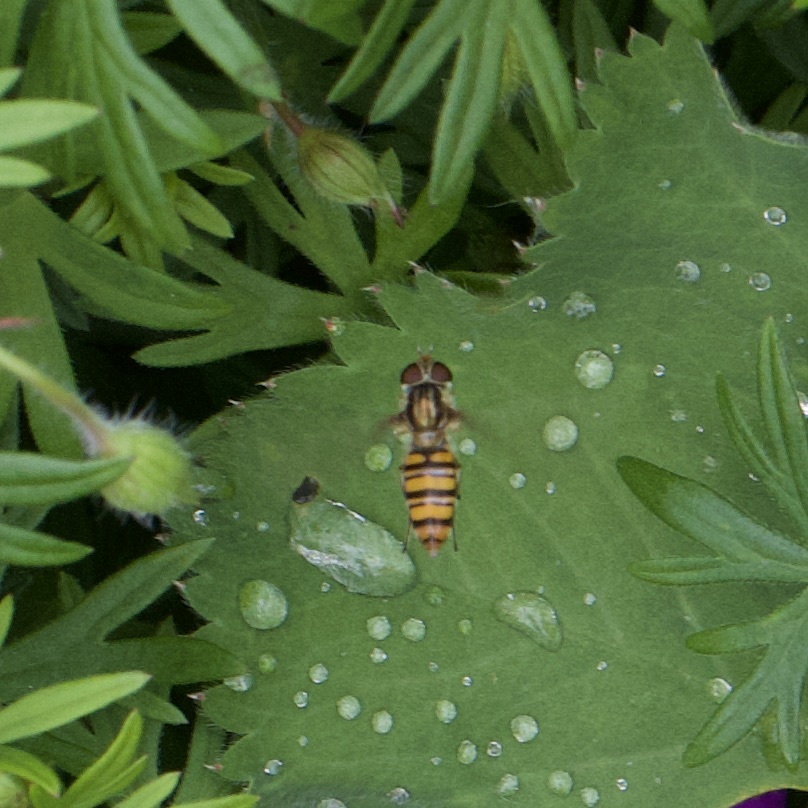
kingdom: Animalia
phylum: Arthropoda
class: Insecta
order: Diptera
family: Syrphidae
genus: Episyrphus
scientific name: Episyrphus balteatus
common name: Marmalade hoverfly
